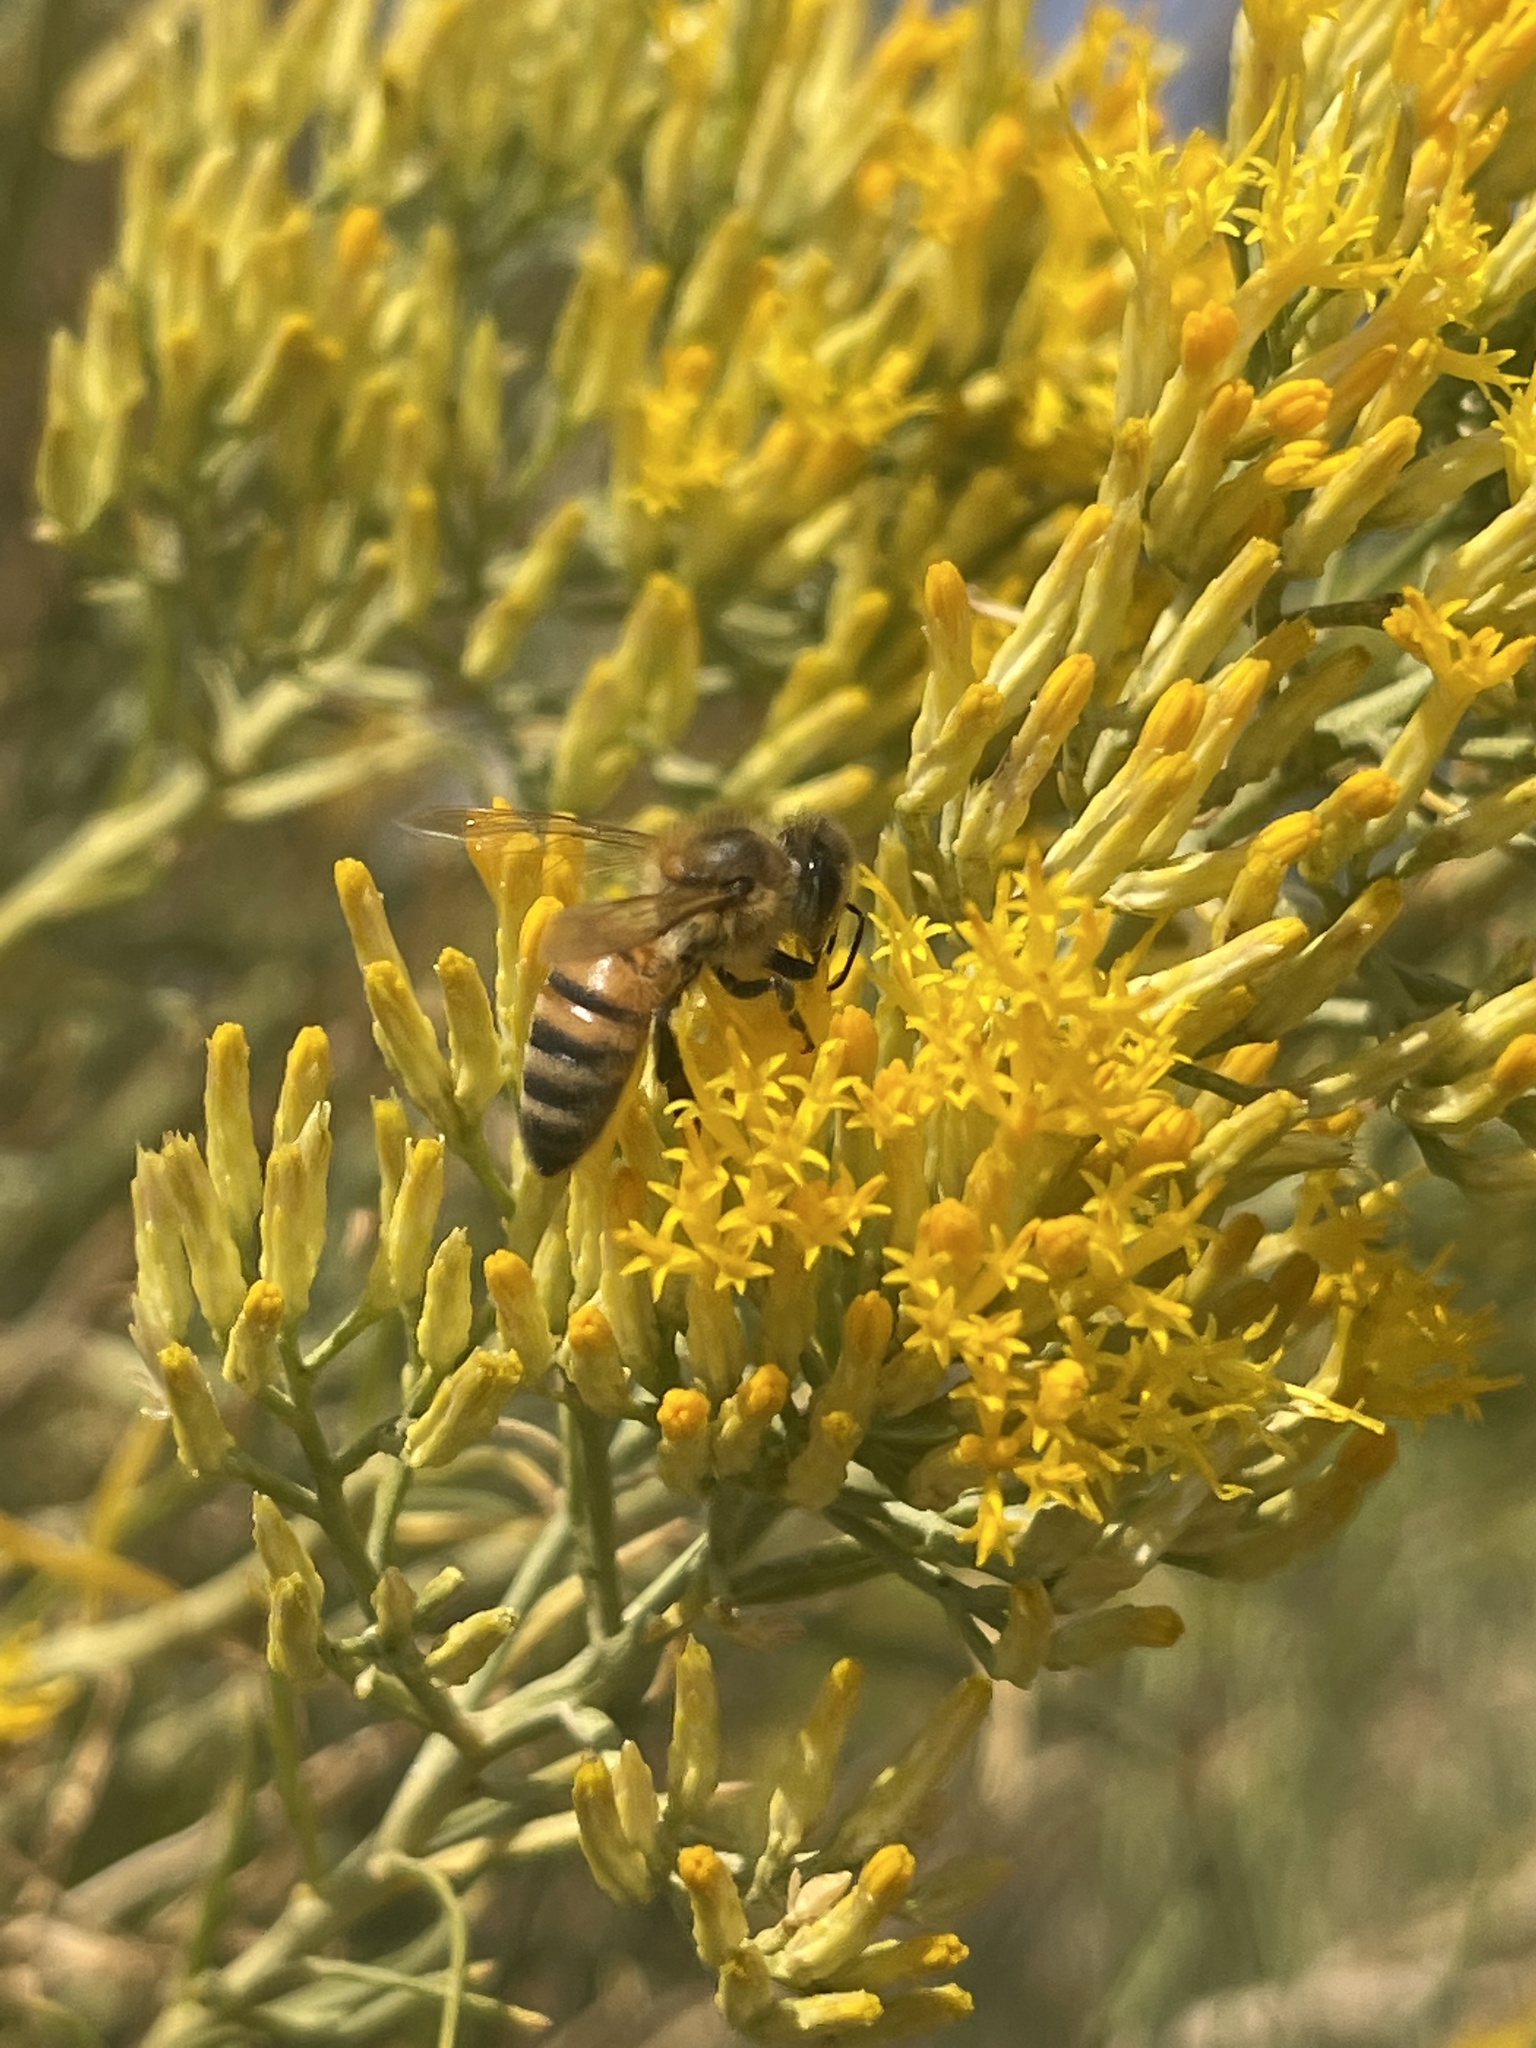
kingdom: Animalia
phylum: Arthropoda
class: Insecta
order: Hymenoptera
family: Apidae
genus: Apis
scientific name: Apis mellifera
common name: Honey bee
